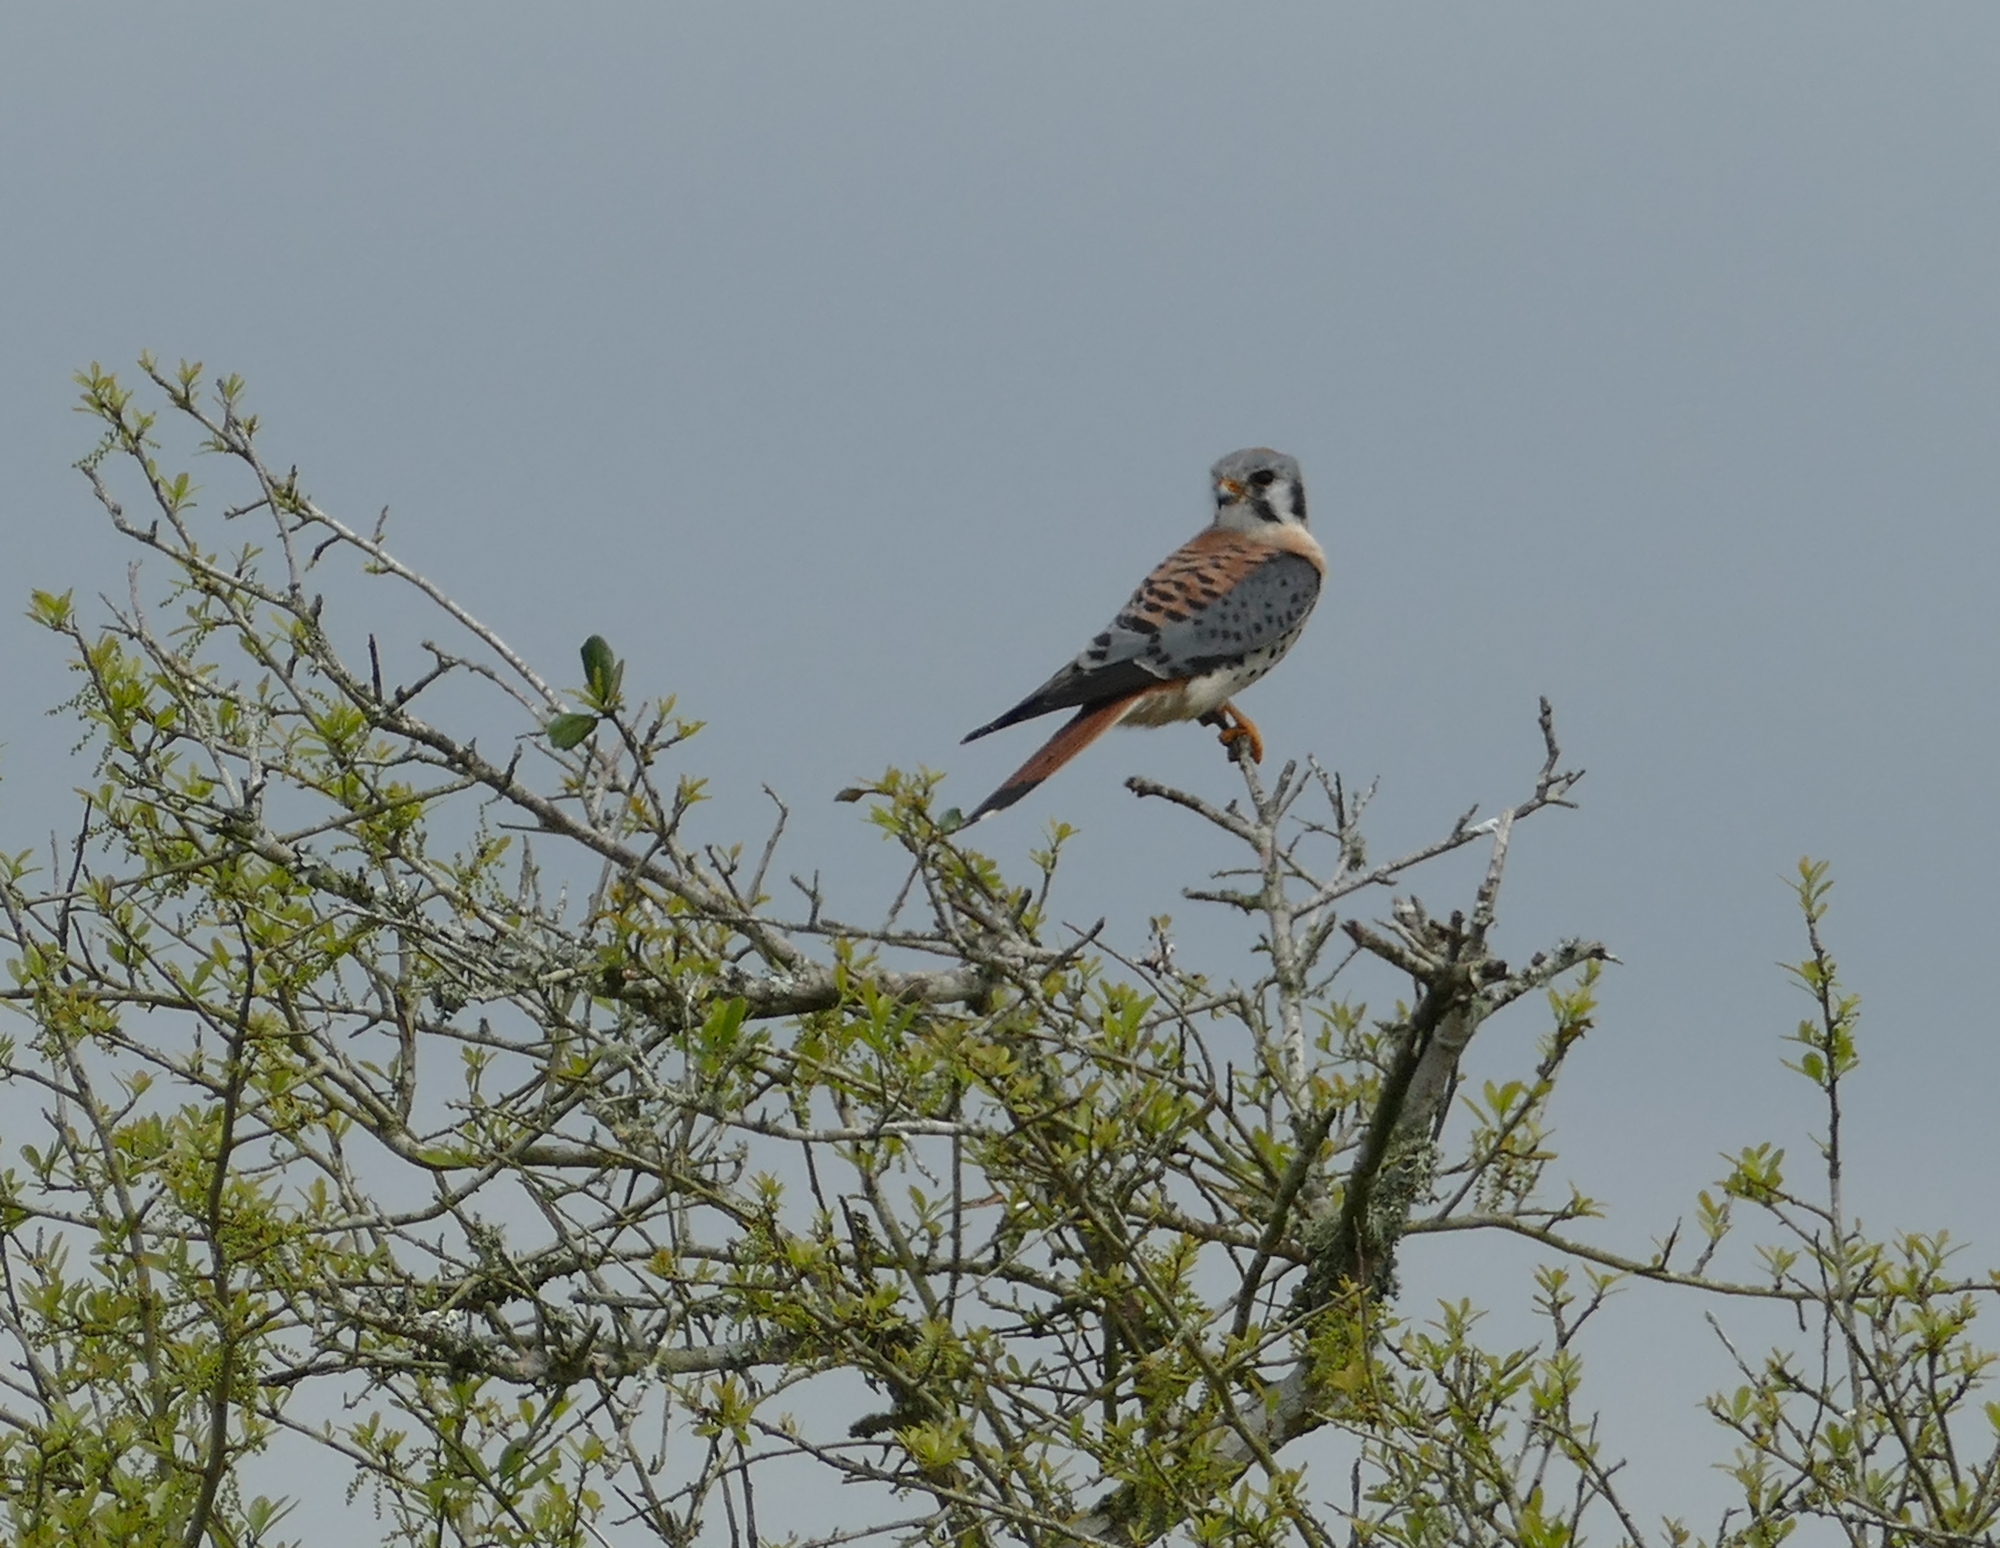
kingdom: Animalia
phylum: Chordata
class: Aves
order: Falconiformes
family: Falconidae
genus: Falco
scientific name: Falco sparverius
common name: American kestrel
